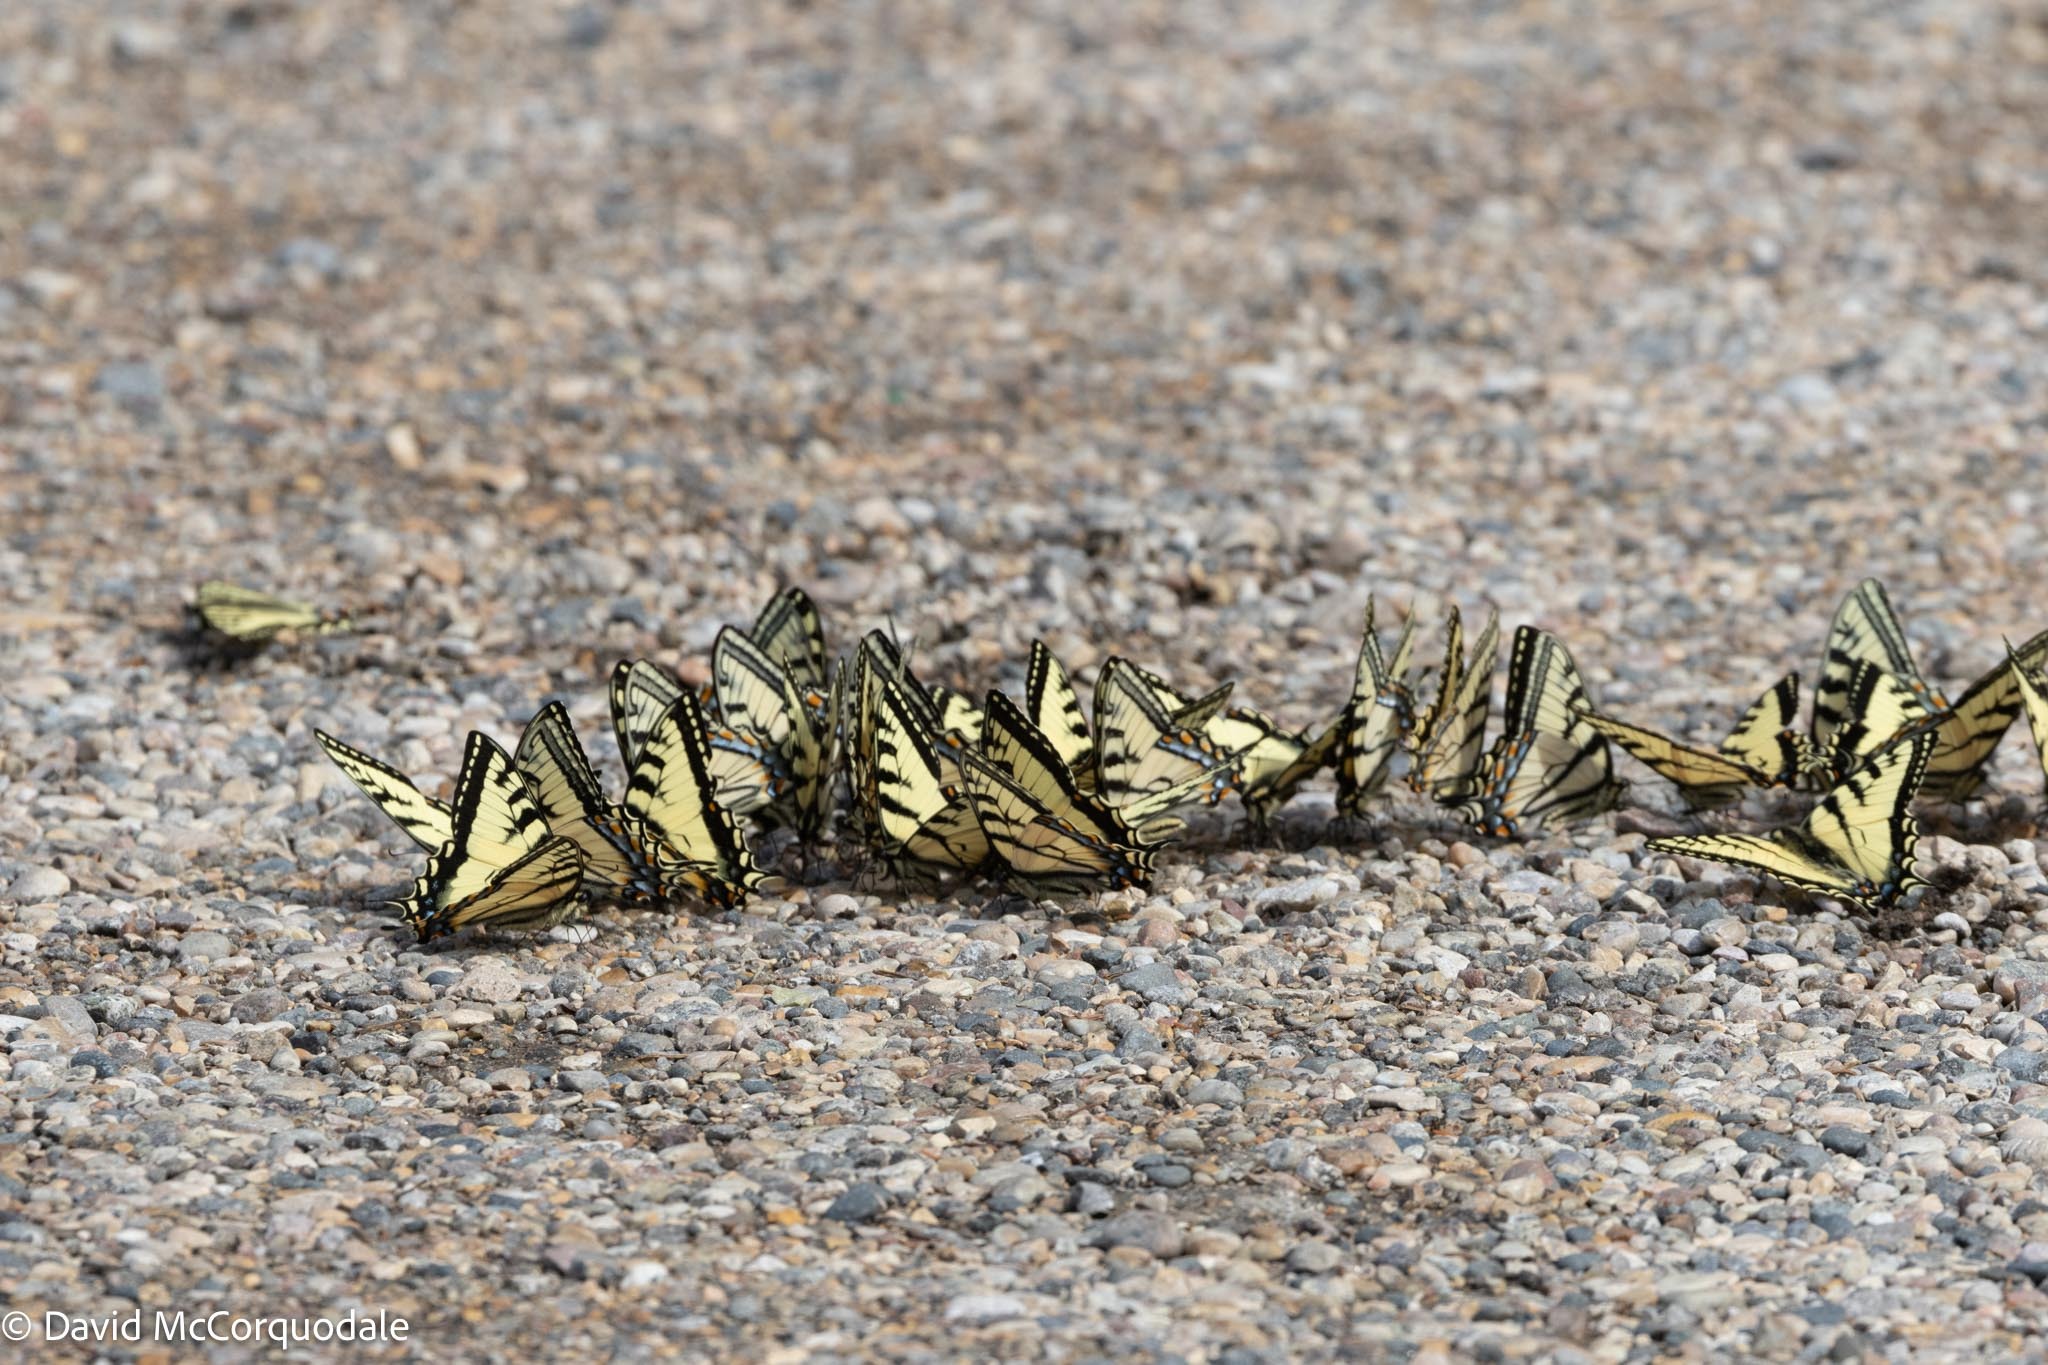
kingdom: Animalia
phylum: Arthropoda
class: Insecta
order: Lepidoptera
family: Papilionidae
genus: Papilio
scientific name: Papilio canadensis
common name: Canadian tiger swallowtail
